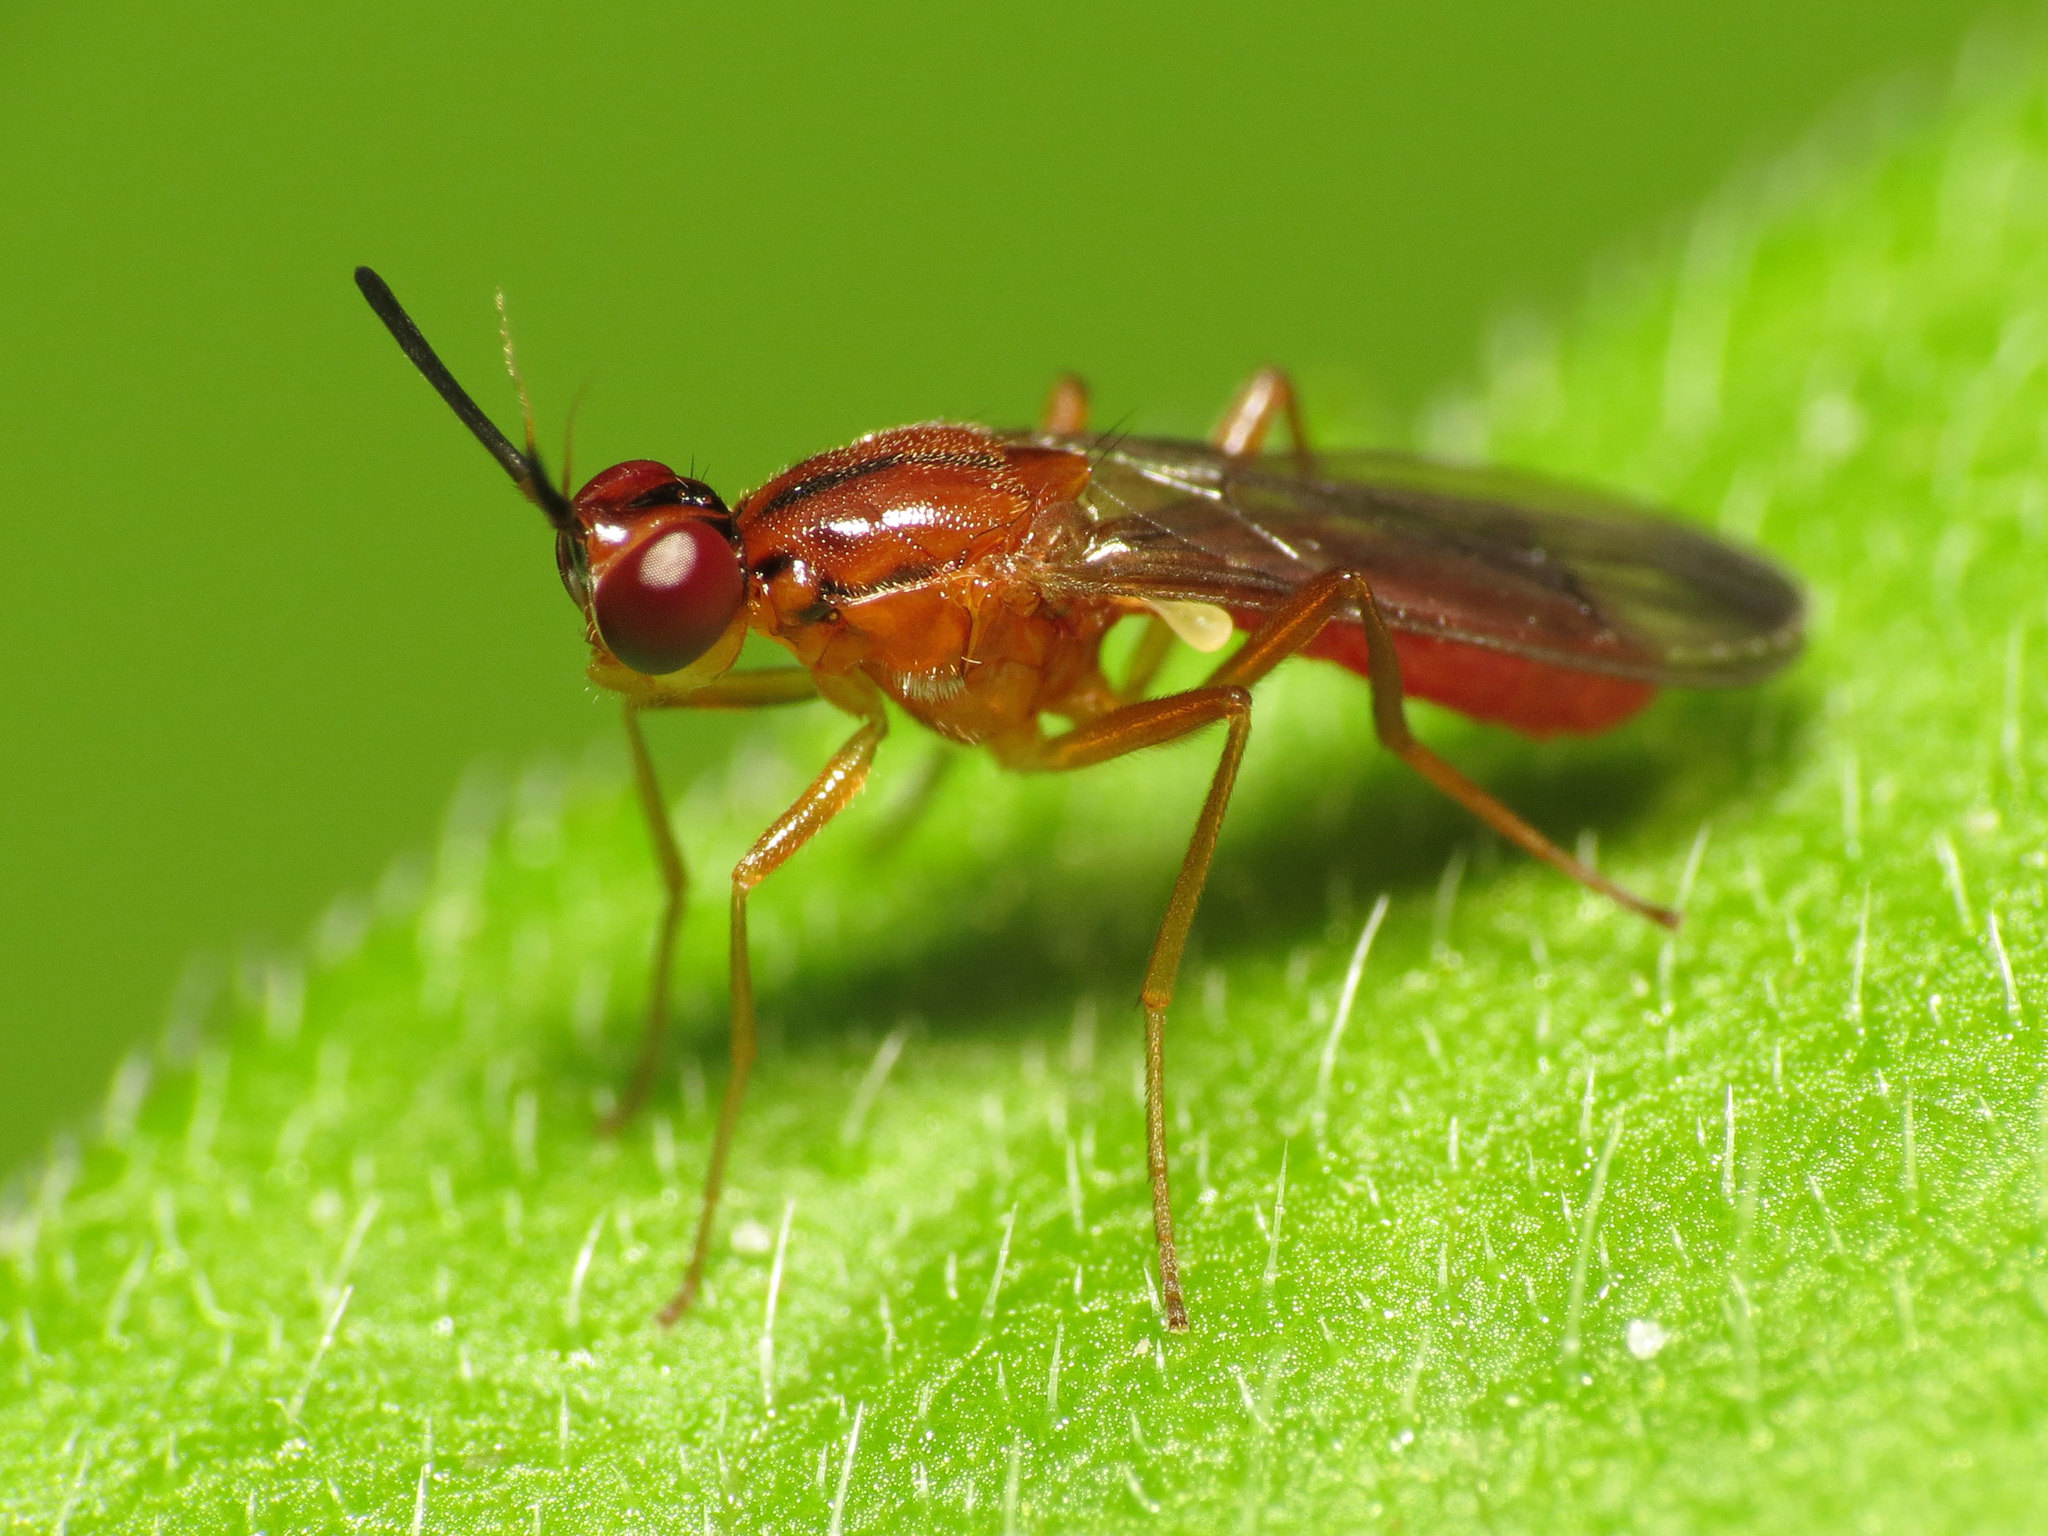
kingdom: Animalia
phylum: Arthropoda
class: Insecta
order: Diptera
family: Psilidae
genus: Loxocera
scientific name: Loxocera cylindrica
